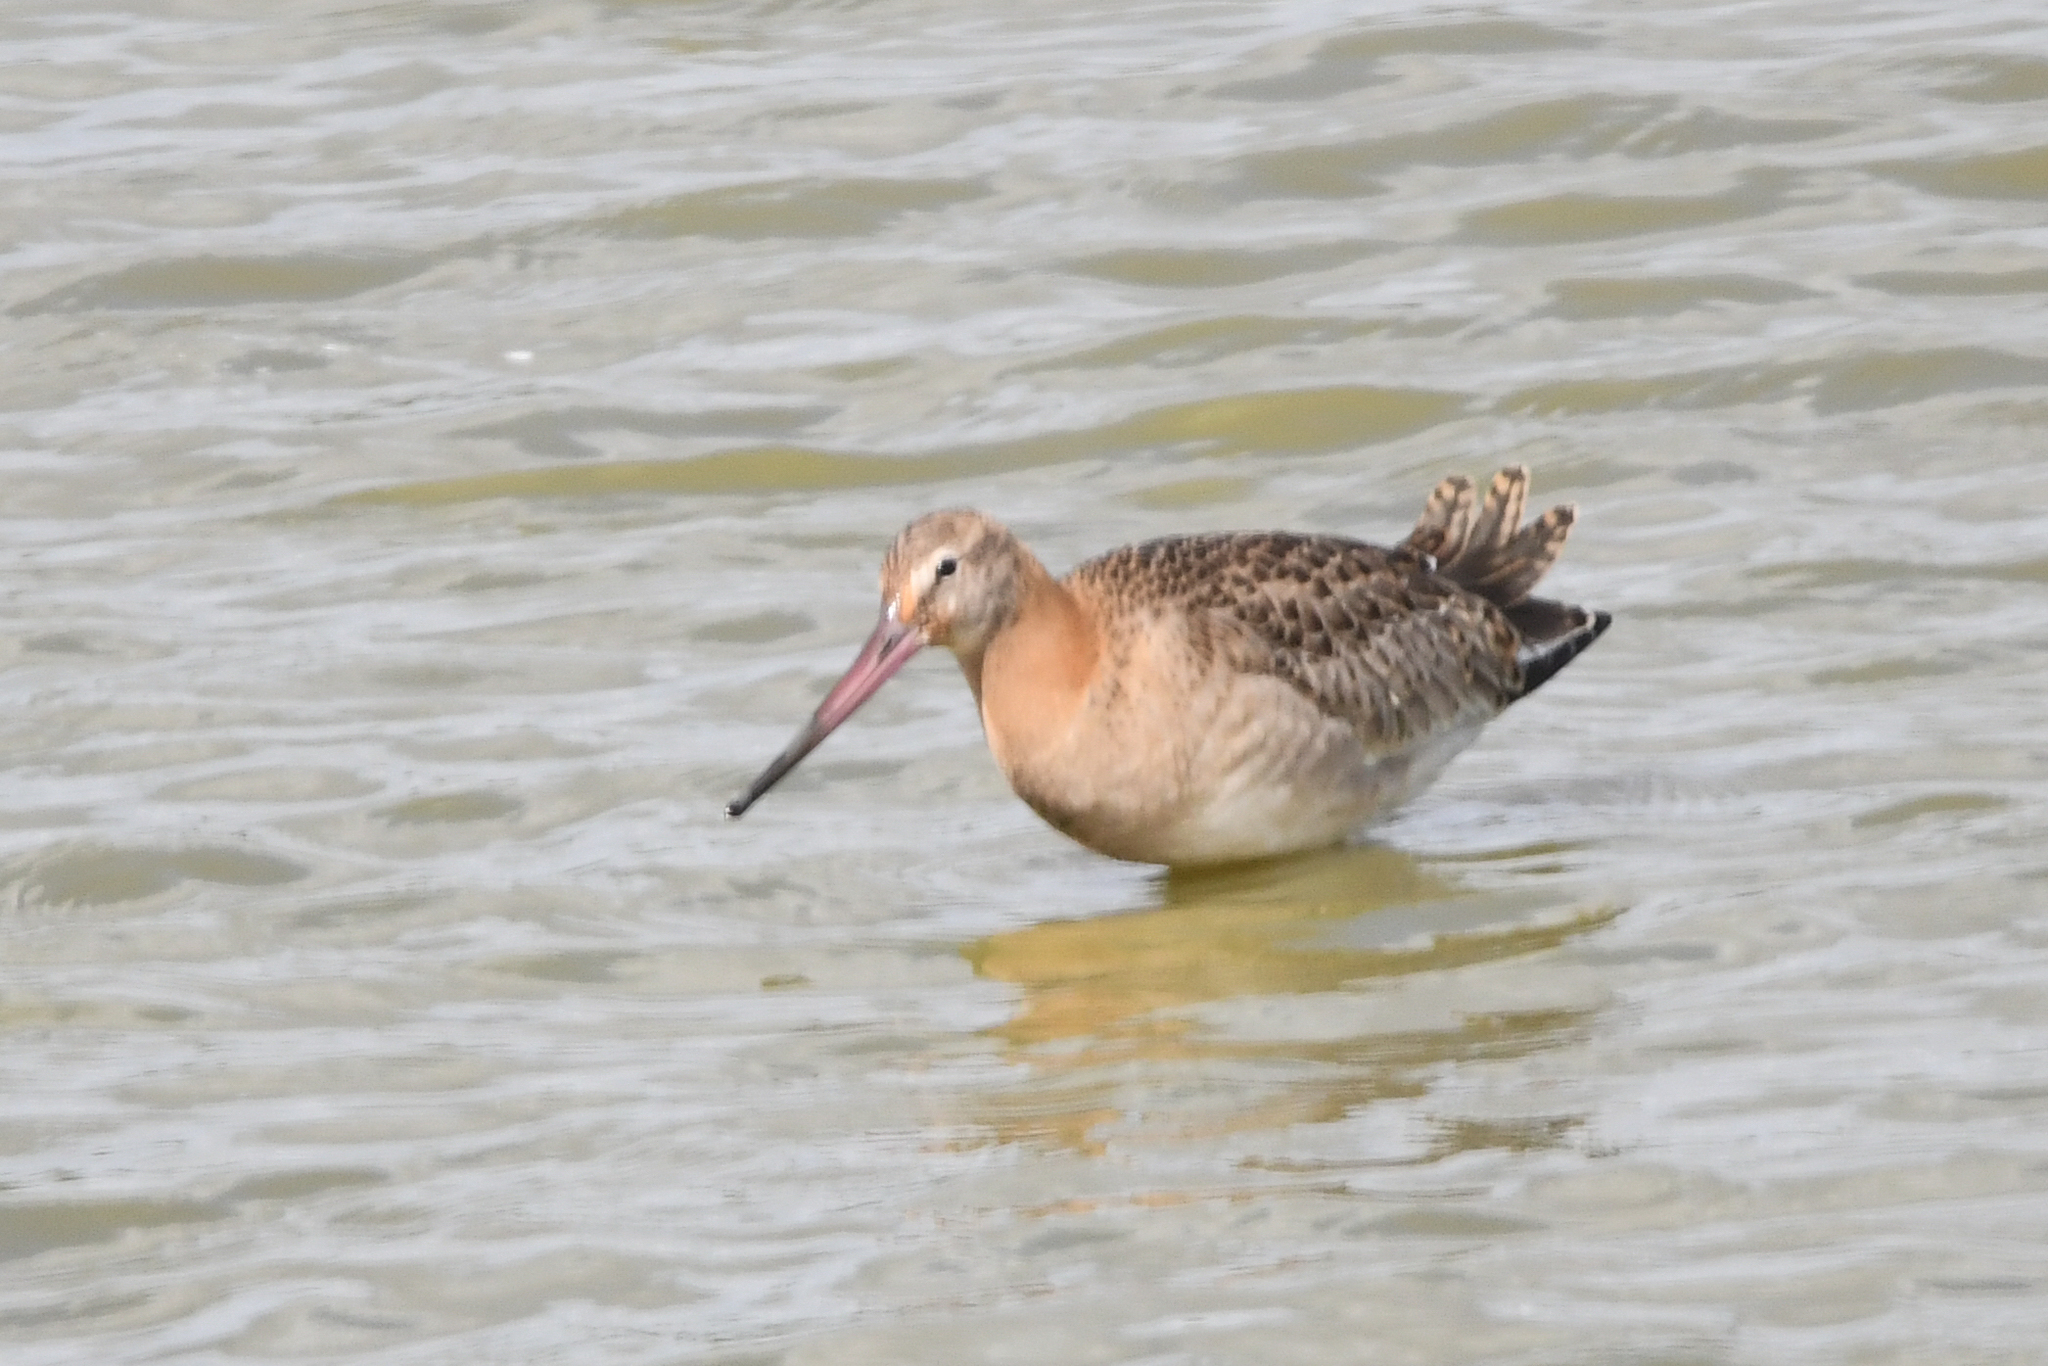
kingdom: Animalia
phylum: Chordata
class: Aves
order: Charadriiformes
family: Scolopacidae
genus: Limosa
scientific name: Limosa limosa
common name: Black-tailed godwit
